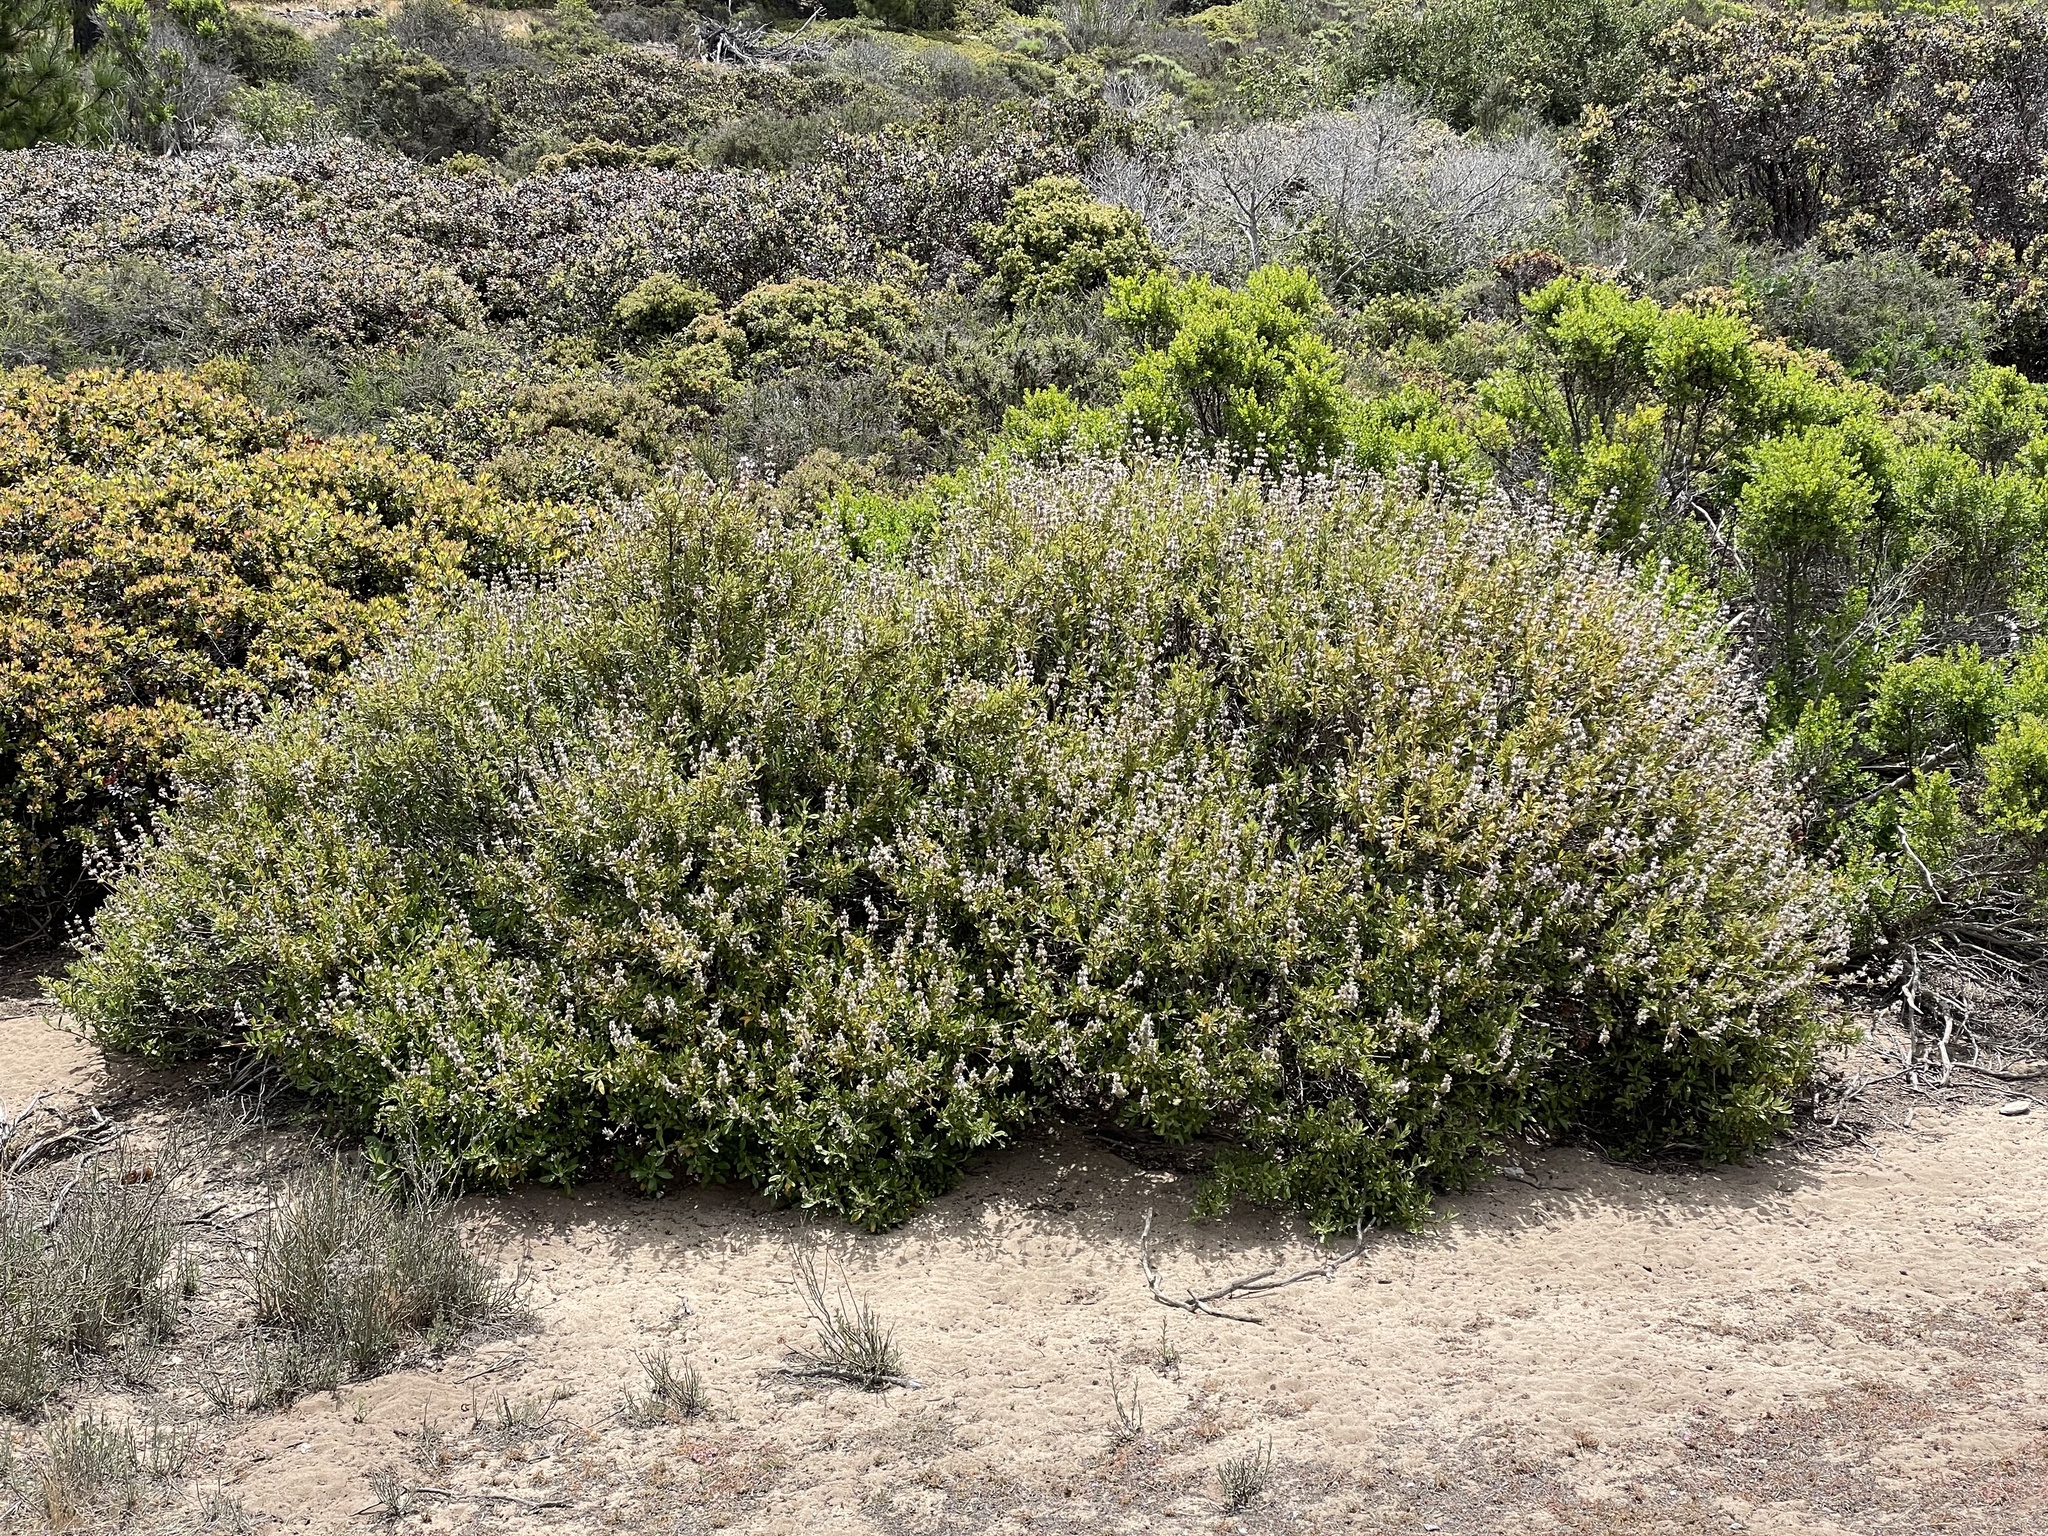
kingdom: Plantae
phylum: Tracheophyta
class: Magnoliopsida
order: Lamiales
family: Lamiaceae
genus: Salvia
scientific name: Salvia mellifera
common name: Black sage
